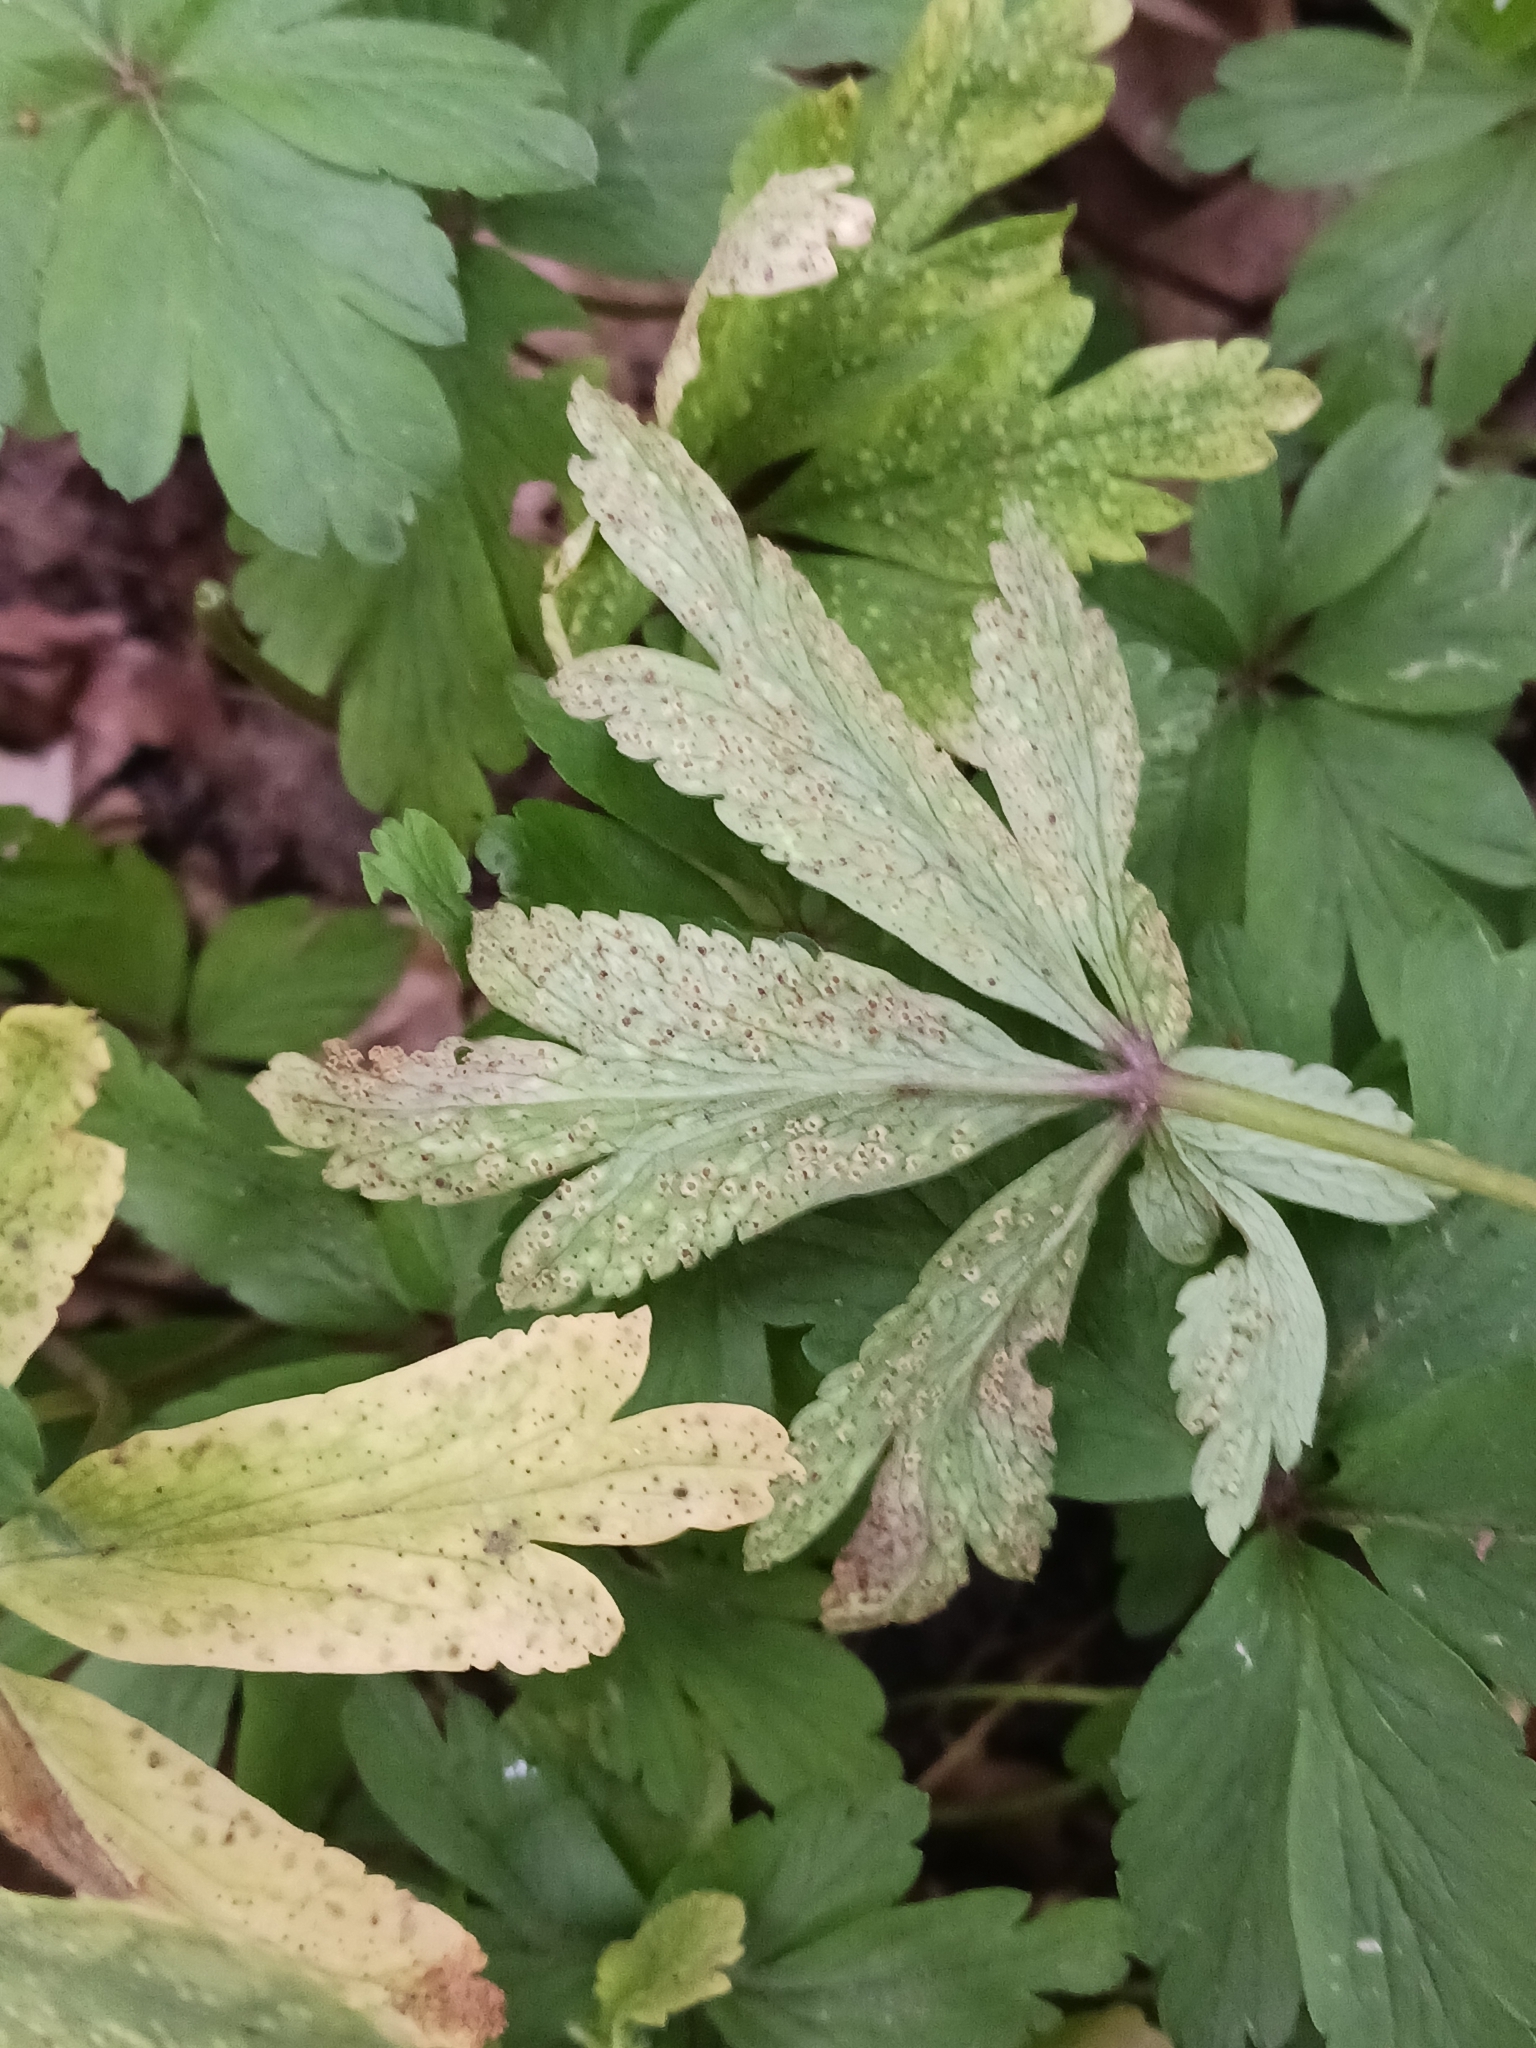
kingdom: Fungi
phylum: Basidiomycota
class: Pucciniomycetes
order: Pucciniales
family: Tranzscheliaceae
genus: Tranzschelia
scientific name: Tranzschelia pruni-spinosae
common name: Blackthorn rust
